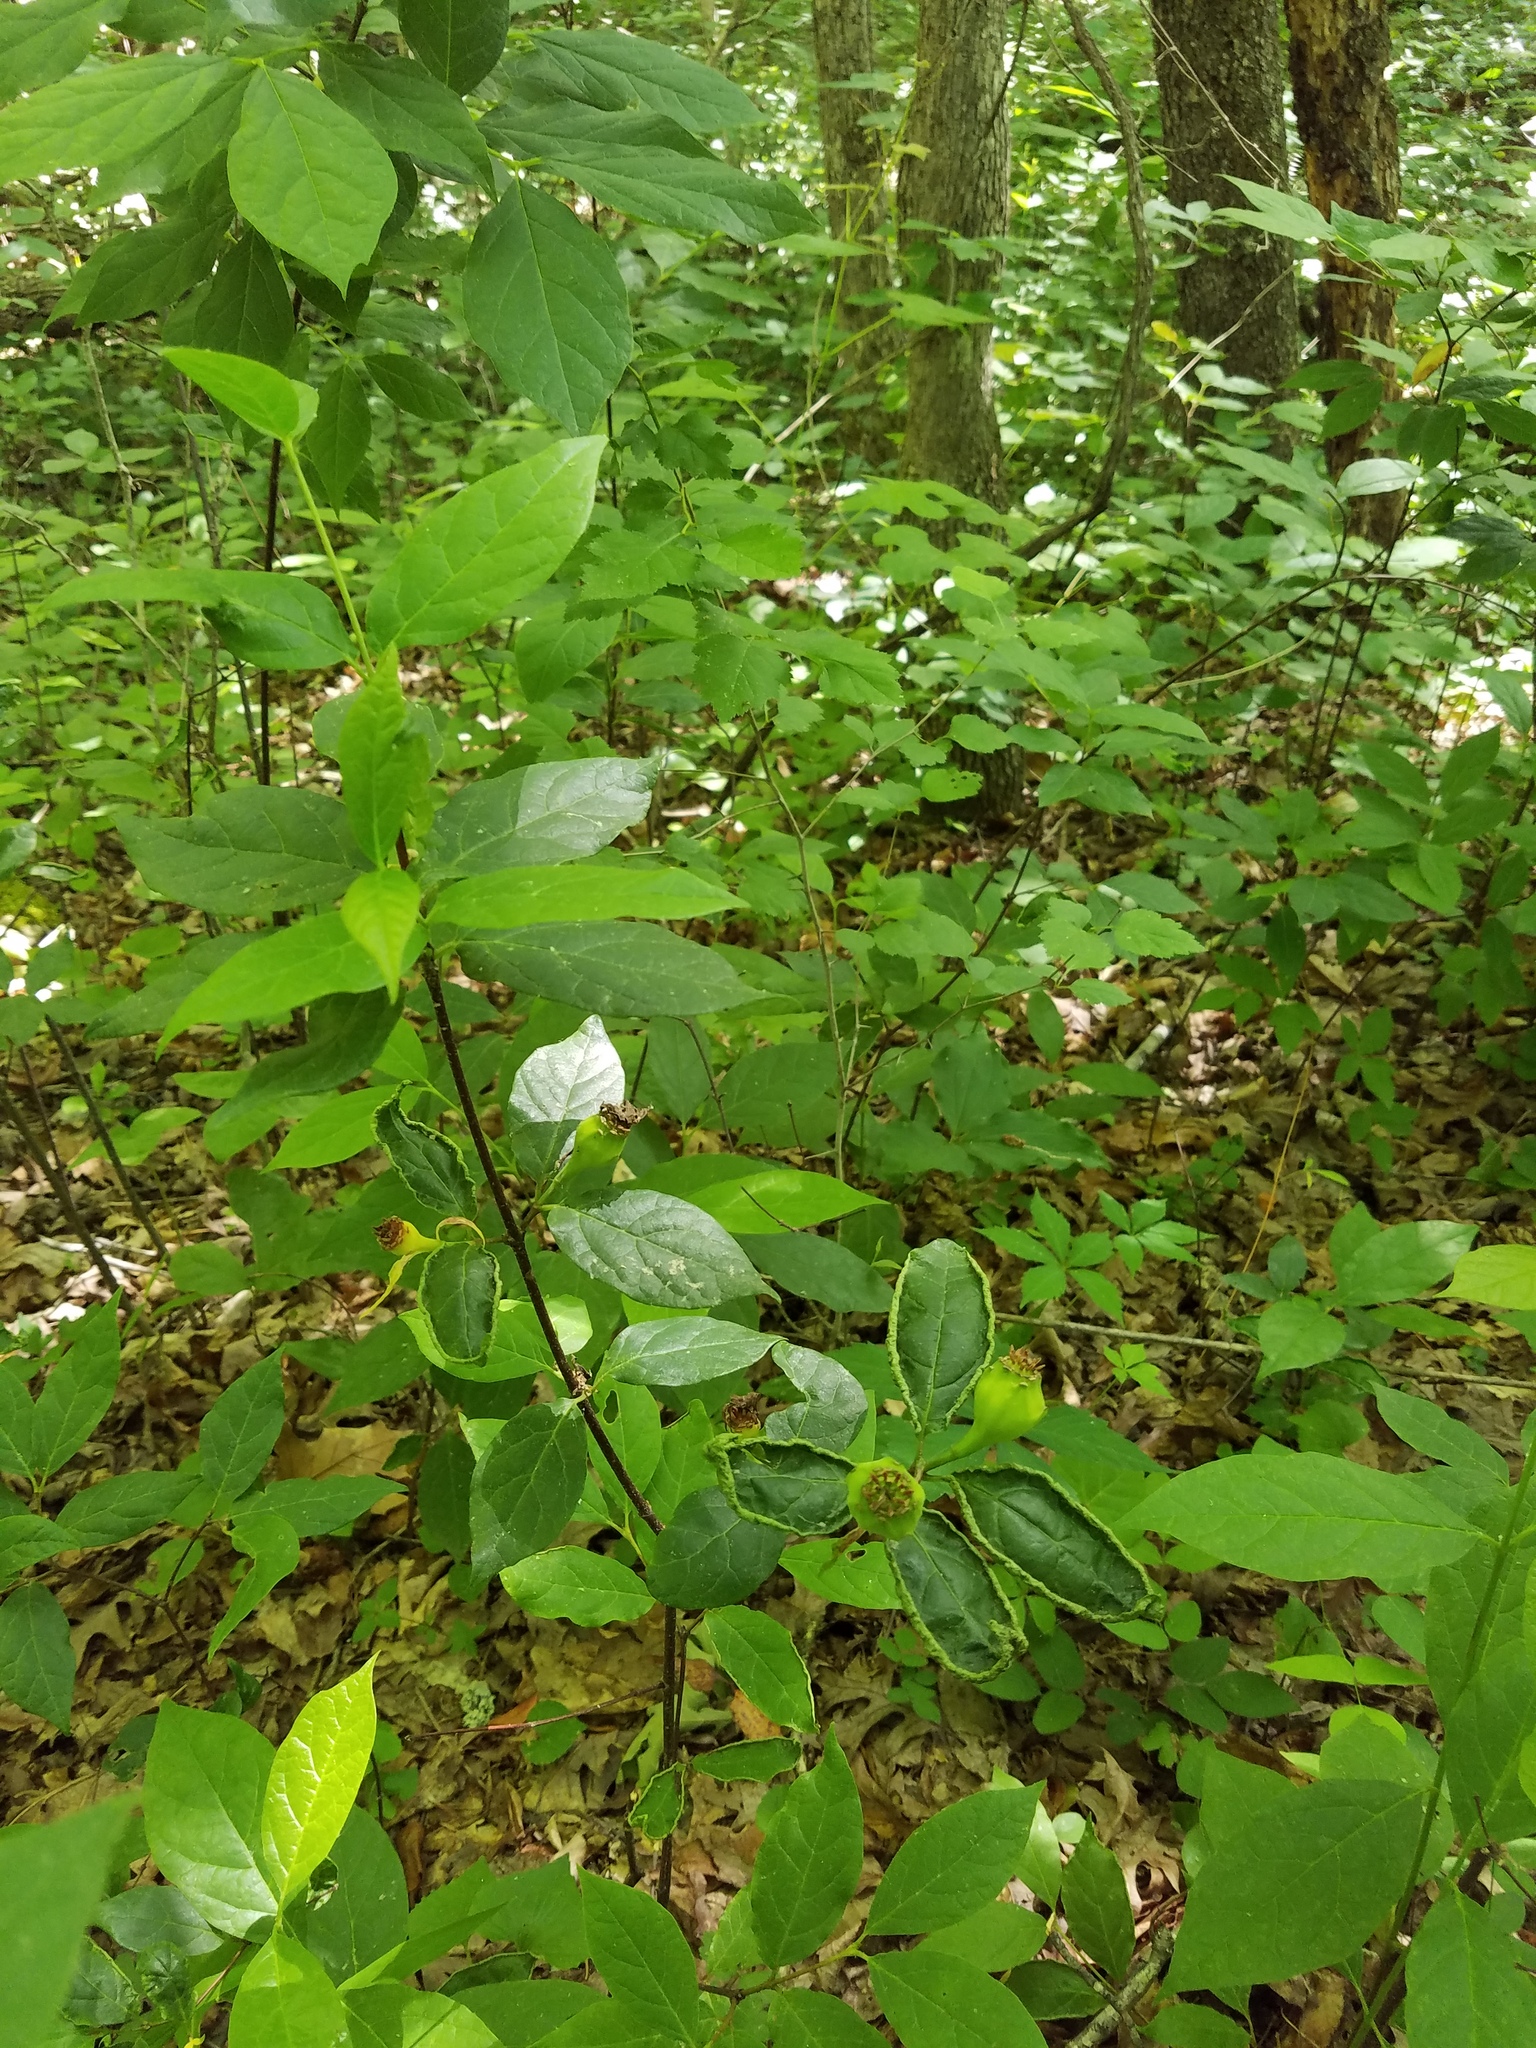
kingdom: Plantae
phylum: Tracheophyta
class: Magnoliopsida
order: Laurales
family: Calycanthaceae
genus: Calycanthus
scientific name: Calycanthus floridus
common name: Carolina-allspice
